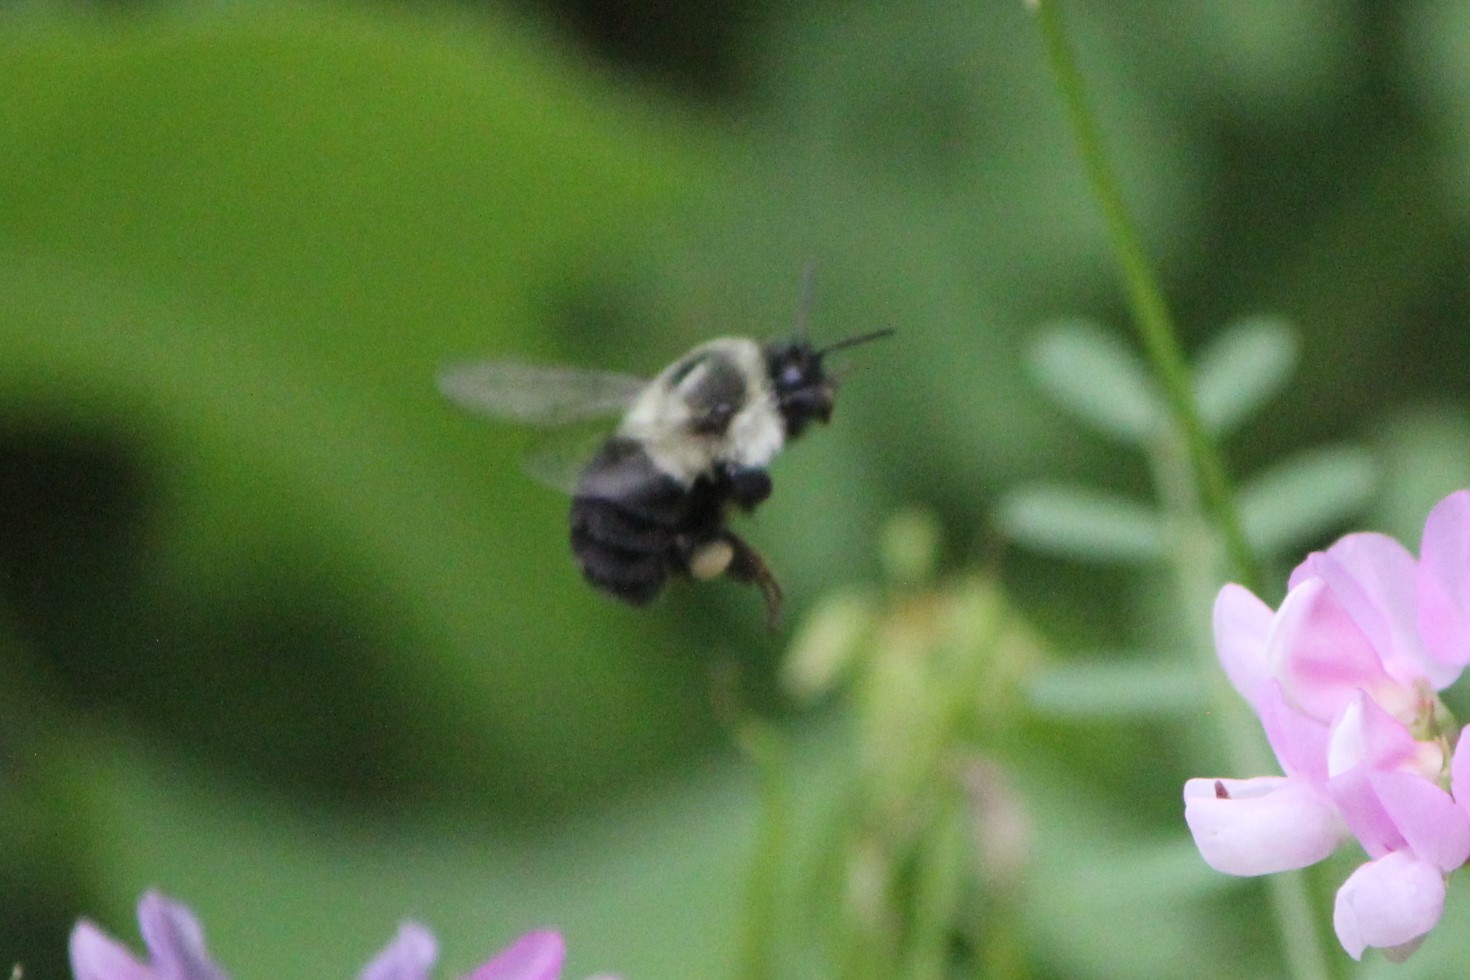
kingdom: Animalia
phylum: Arthropoda
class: Insecta
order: Hymenoptera
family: Apidae
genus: Bombus
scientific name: Bombus impatiens
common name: Common eastern bumble bee
